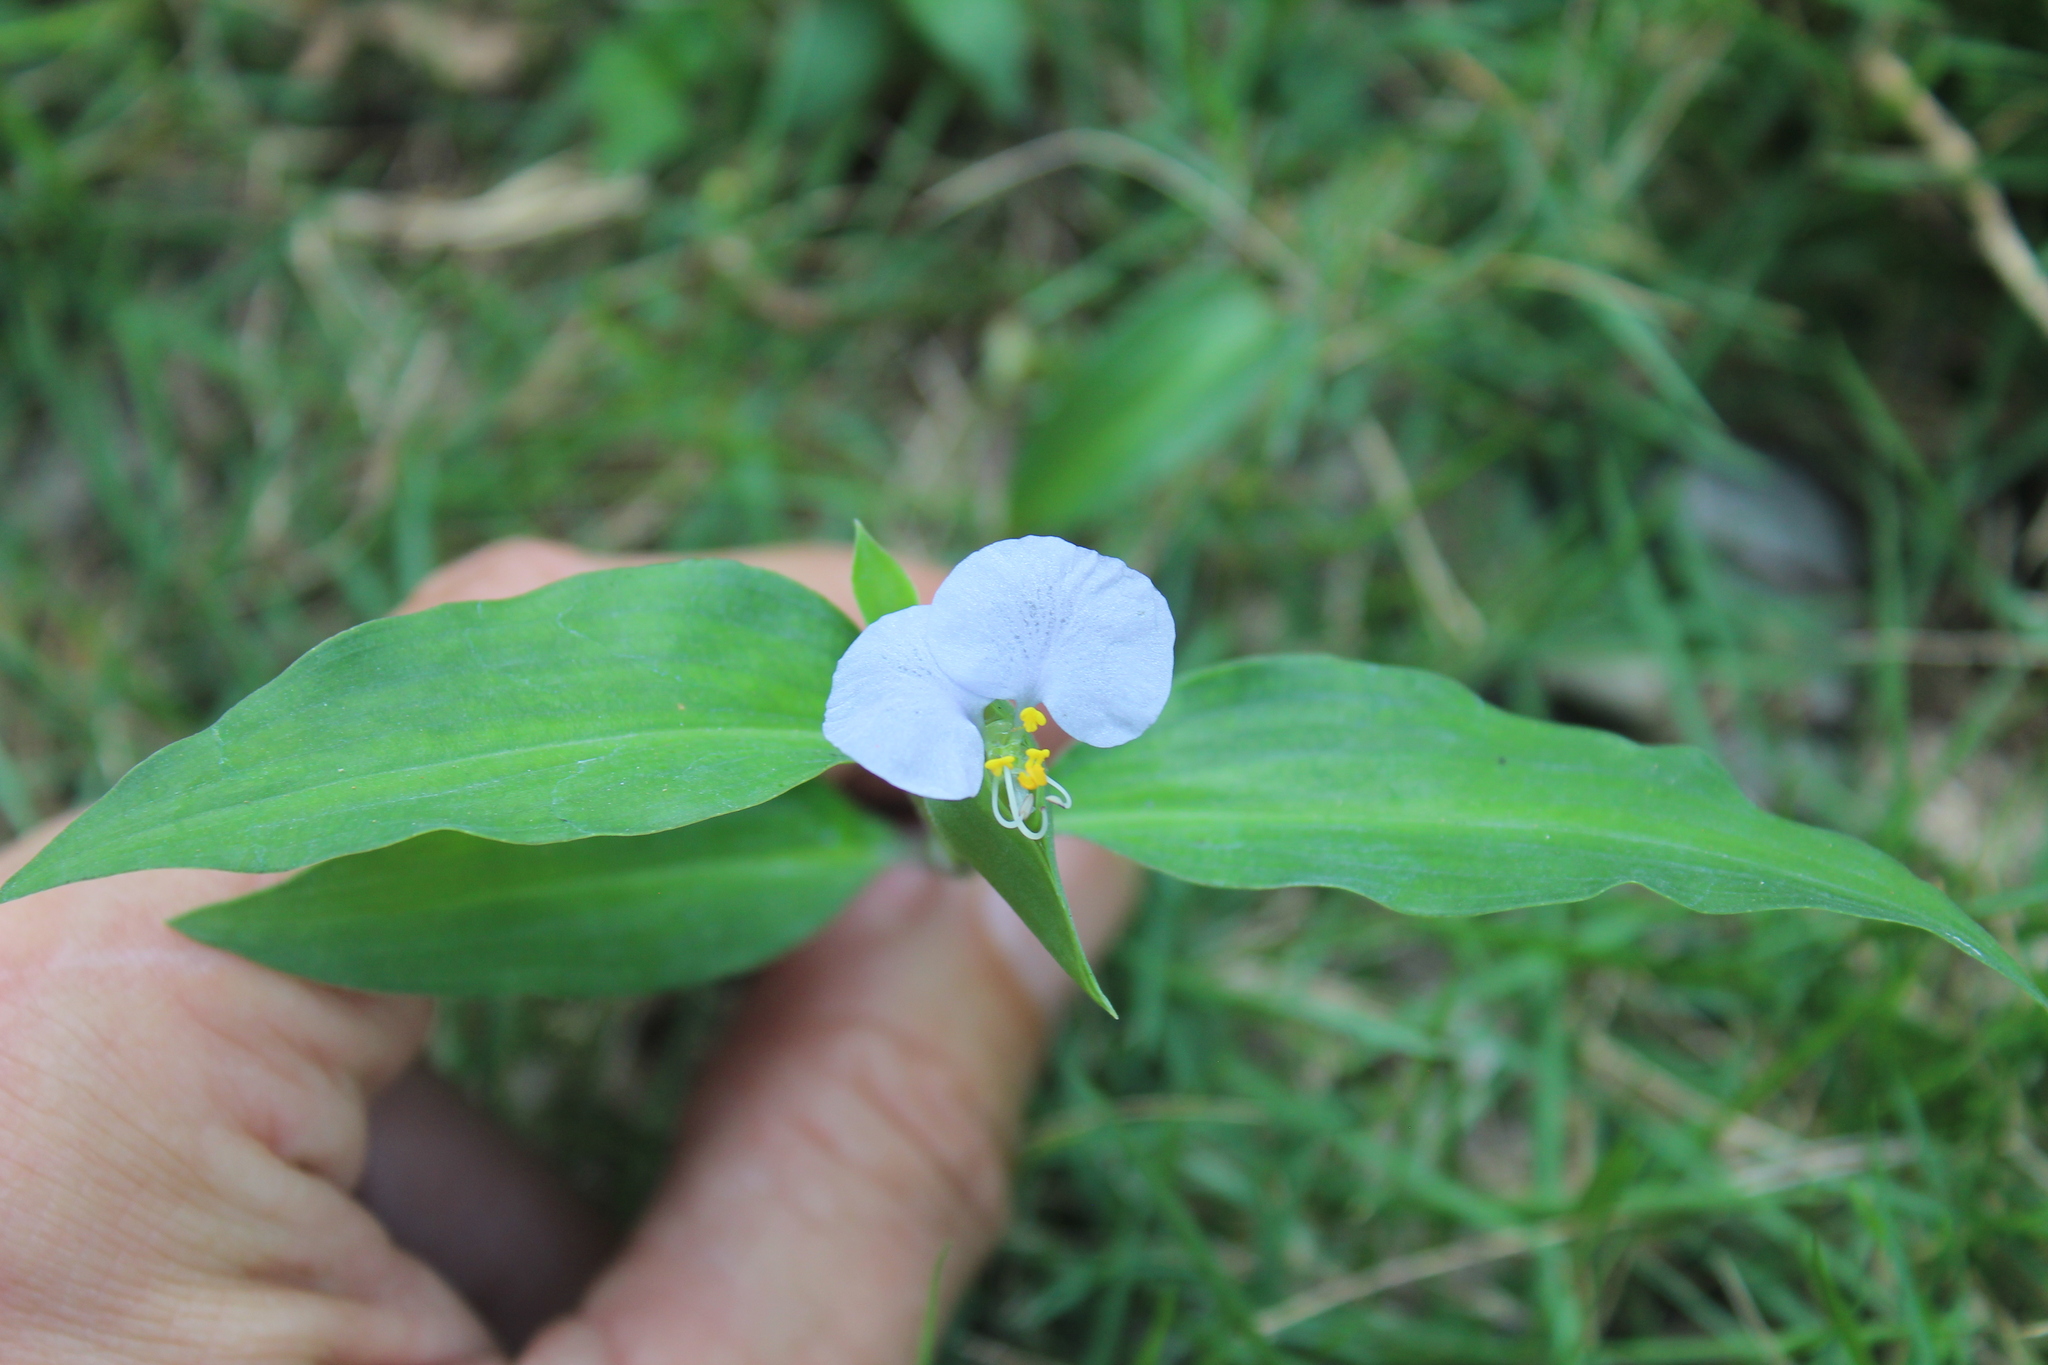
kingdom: Plantae
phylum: Tracheophyta
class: Liliopsida
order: Commelinales
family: Commelinaceae
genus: Commelina
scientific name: Commelina erecta
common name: Blousel blommetjie
